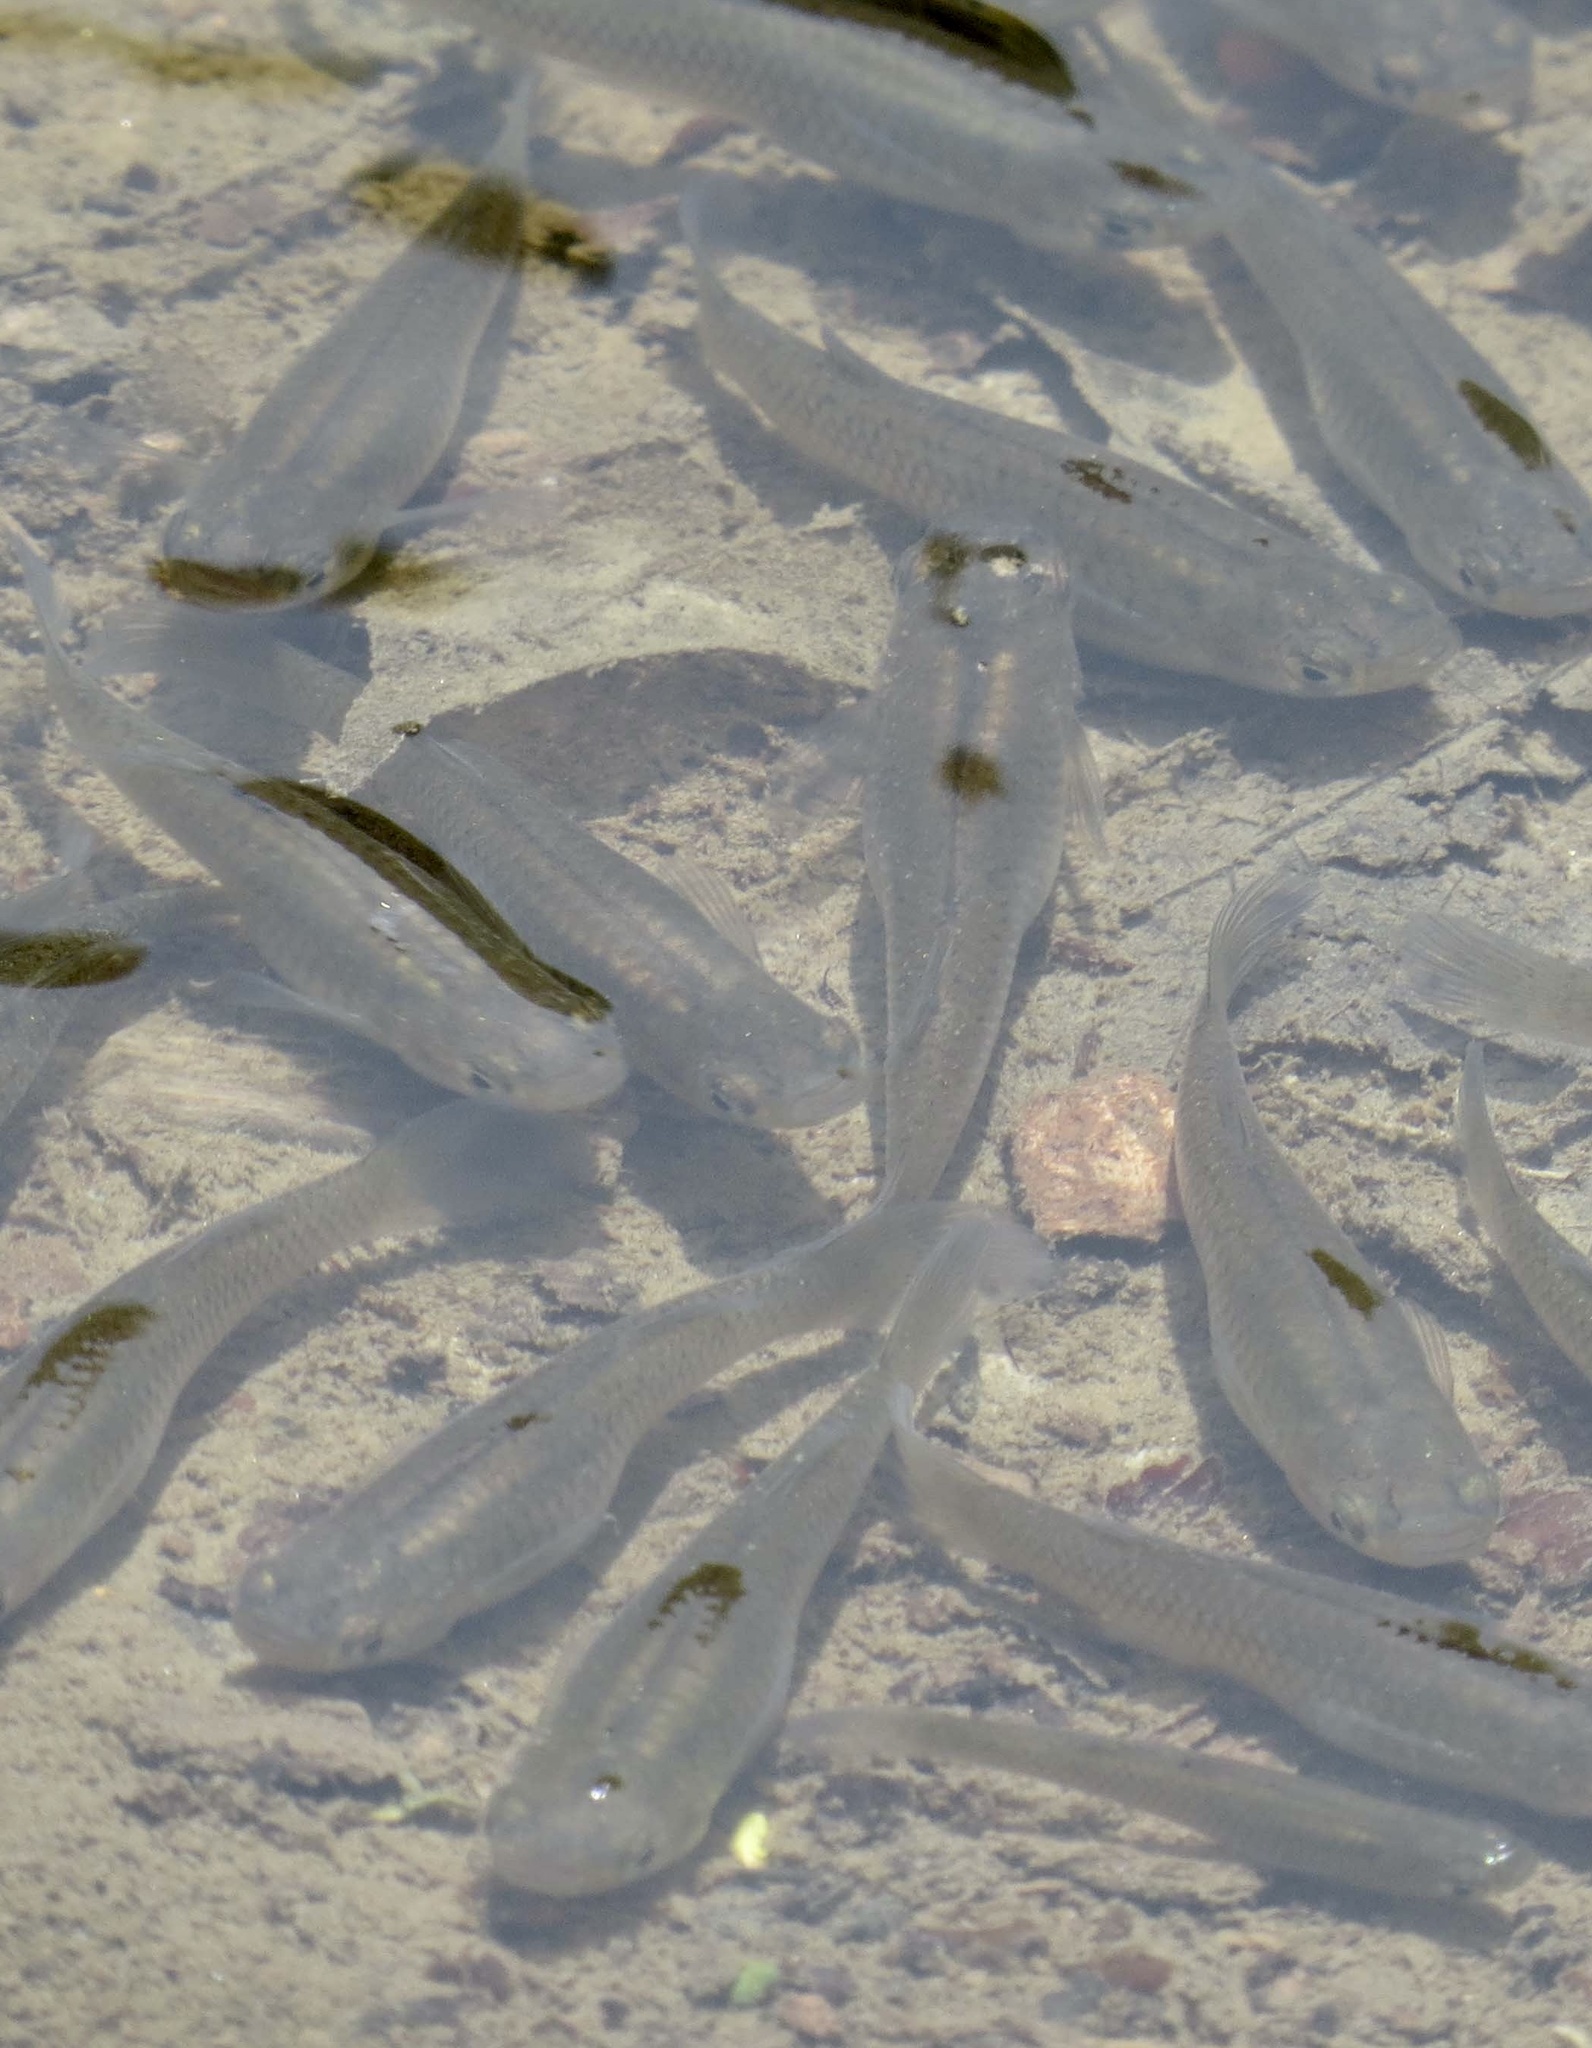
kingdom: Animalia
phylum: Chordata
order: Cyprinodontiformes
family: Poeciliidae
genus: Gambusia
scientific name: Gambusia holbrooki
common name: Eastern mosquitofish
